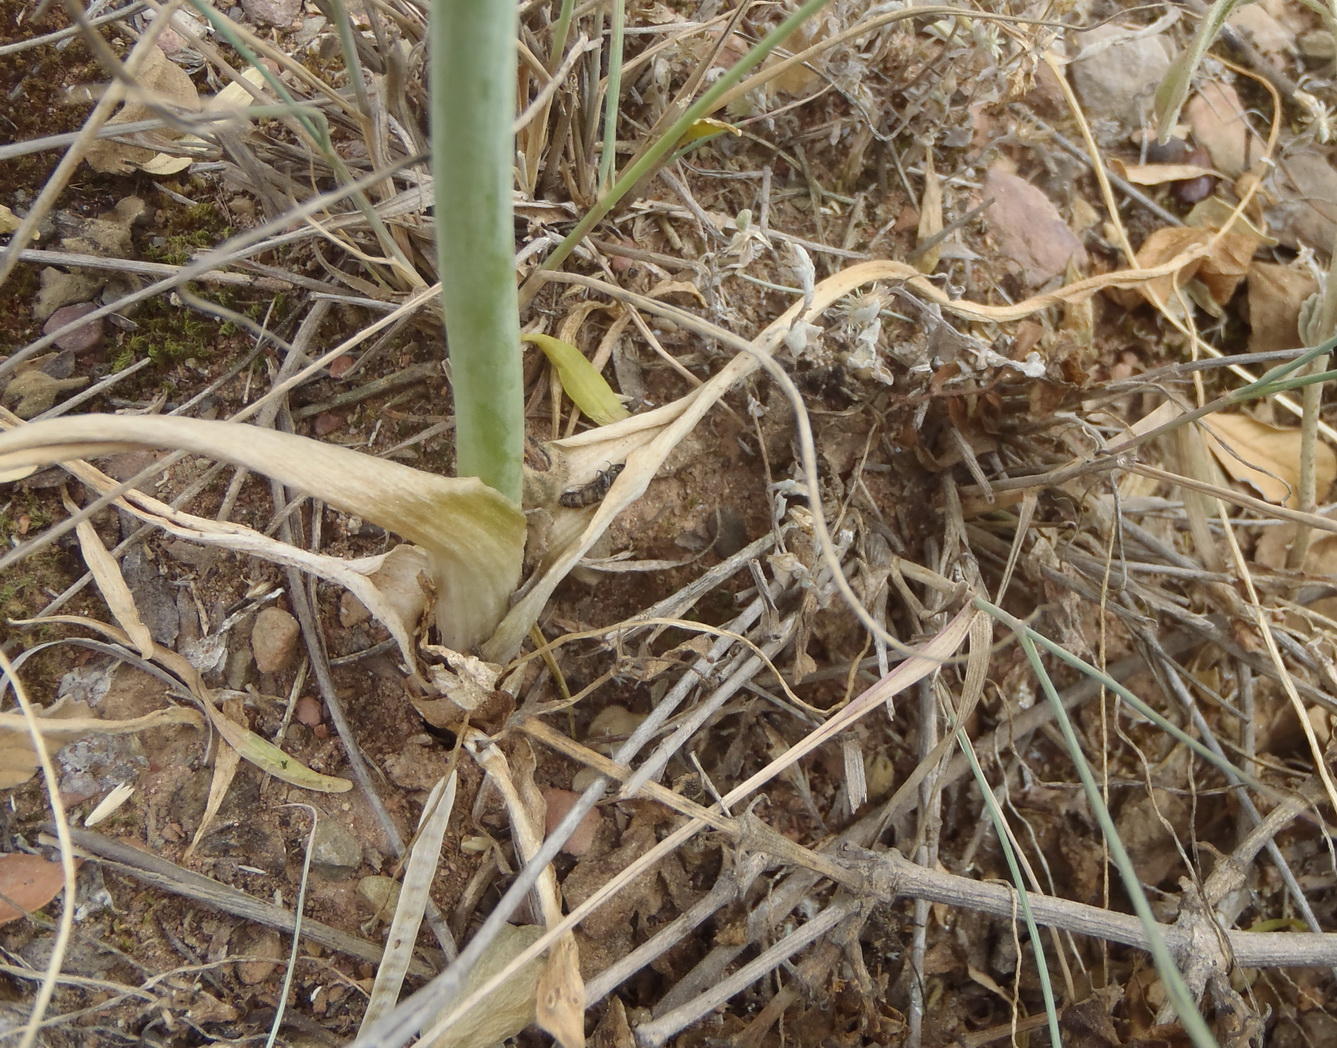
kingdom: Plantae
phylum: Tracheophyta
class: Liliopsida
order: Asparagales
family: Asparagaceae
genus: Ornithogalum
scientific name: Ornithogalum dubium
